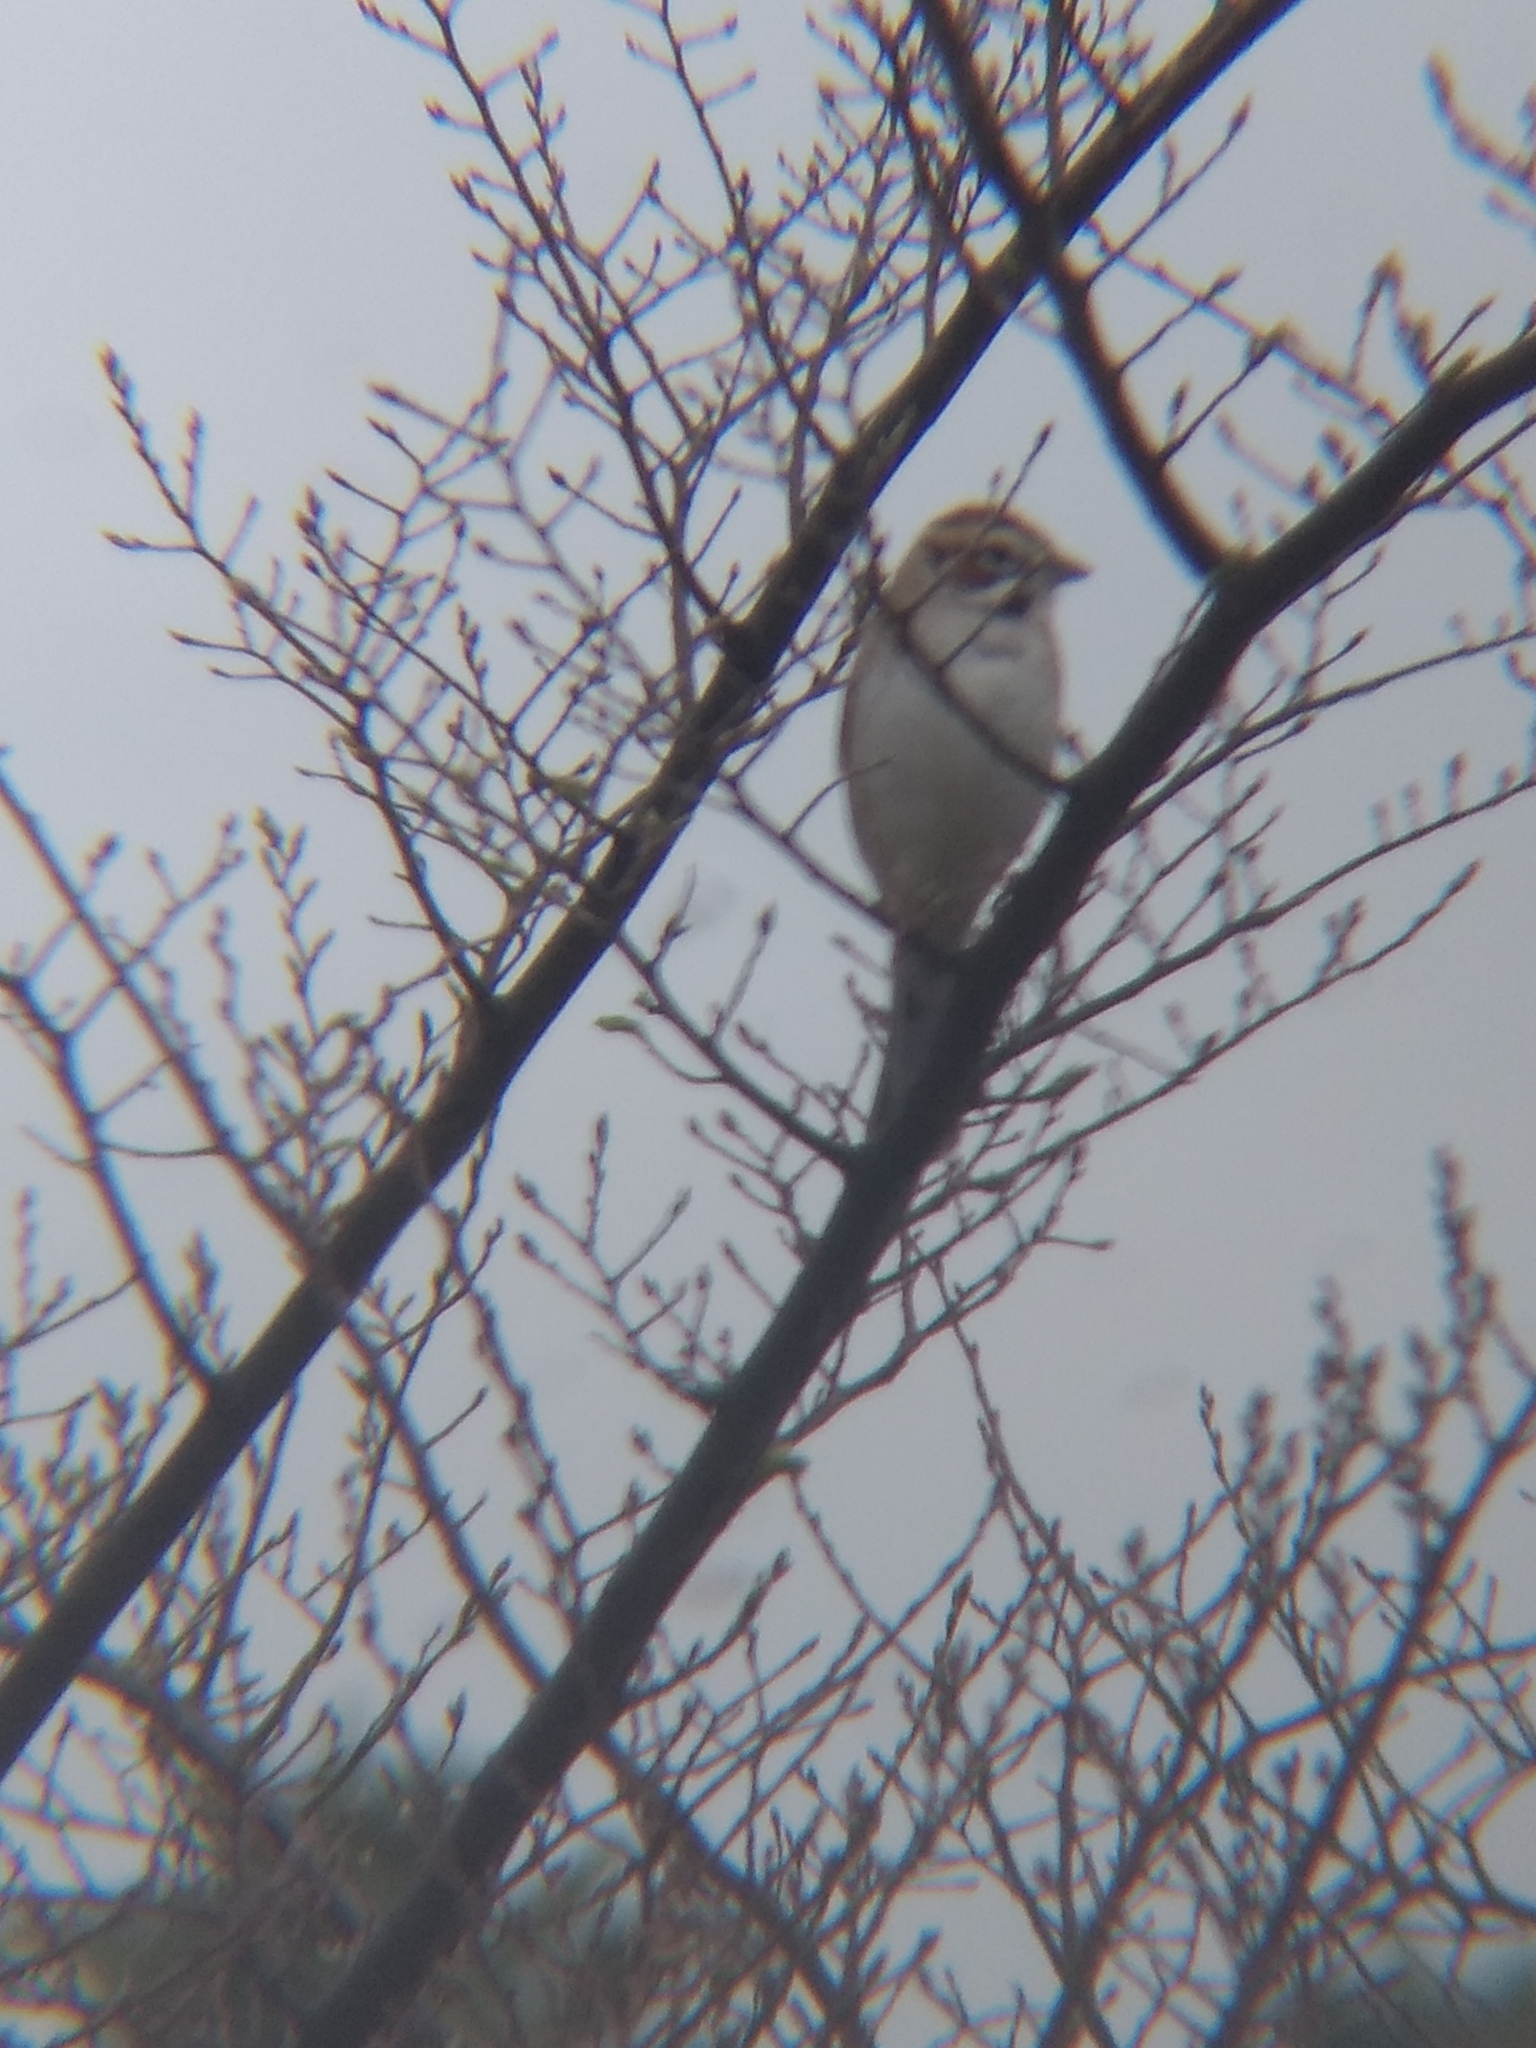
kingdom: Animalia
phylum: Chordata
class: Aves
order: Passeriformes
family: Passerellidae
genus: Chondestes
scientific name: Chondestes grammacus
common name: Lark sparrow
